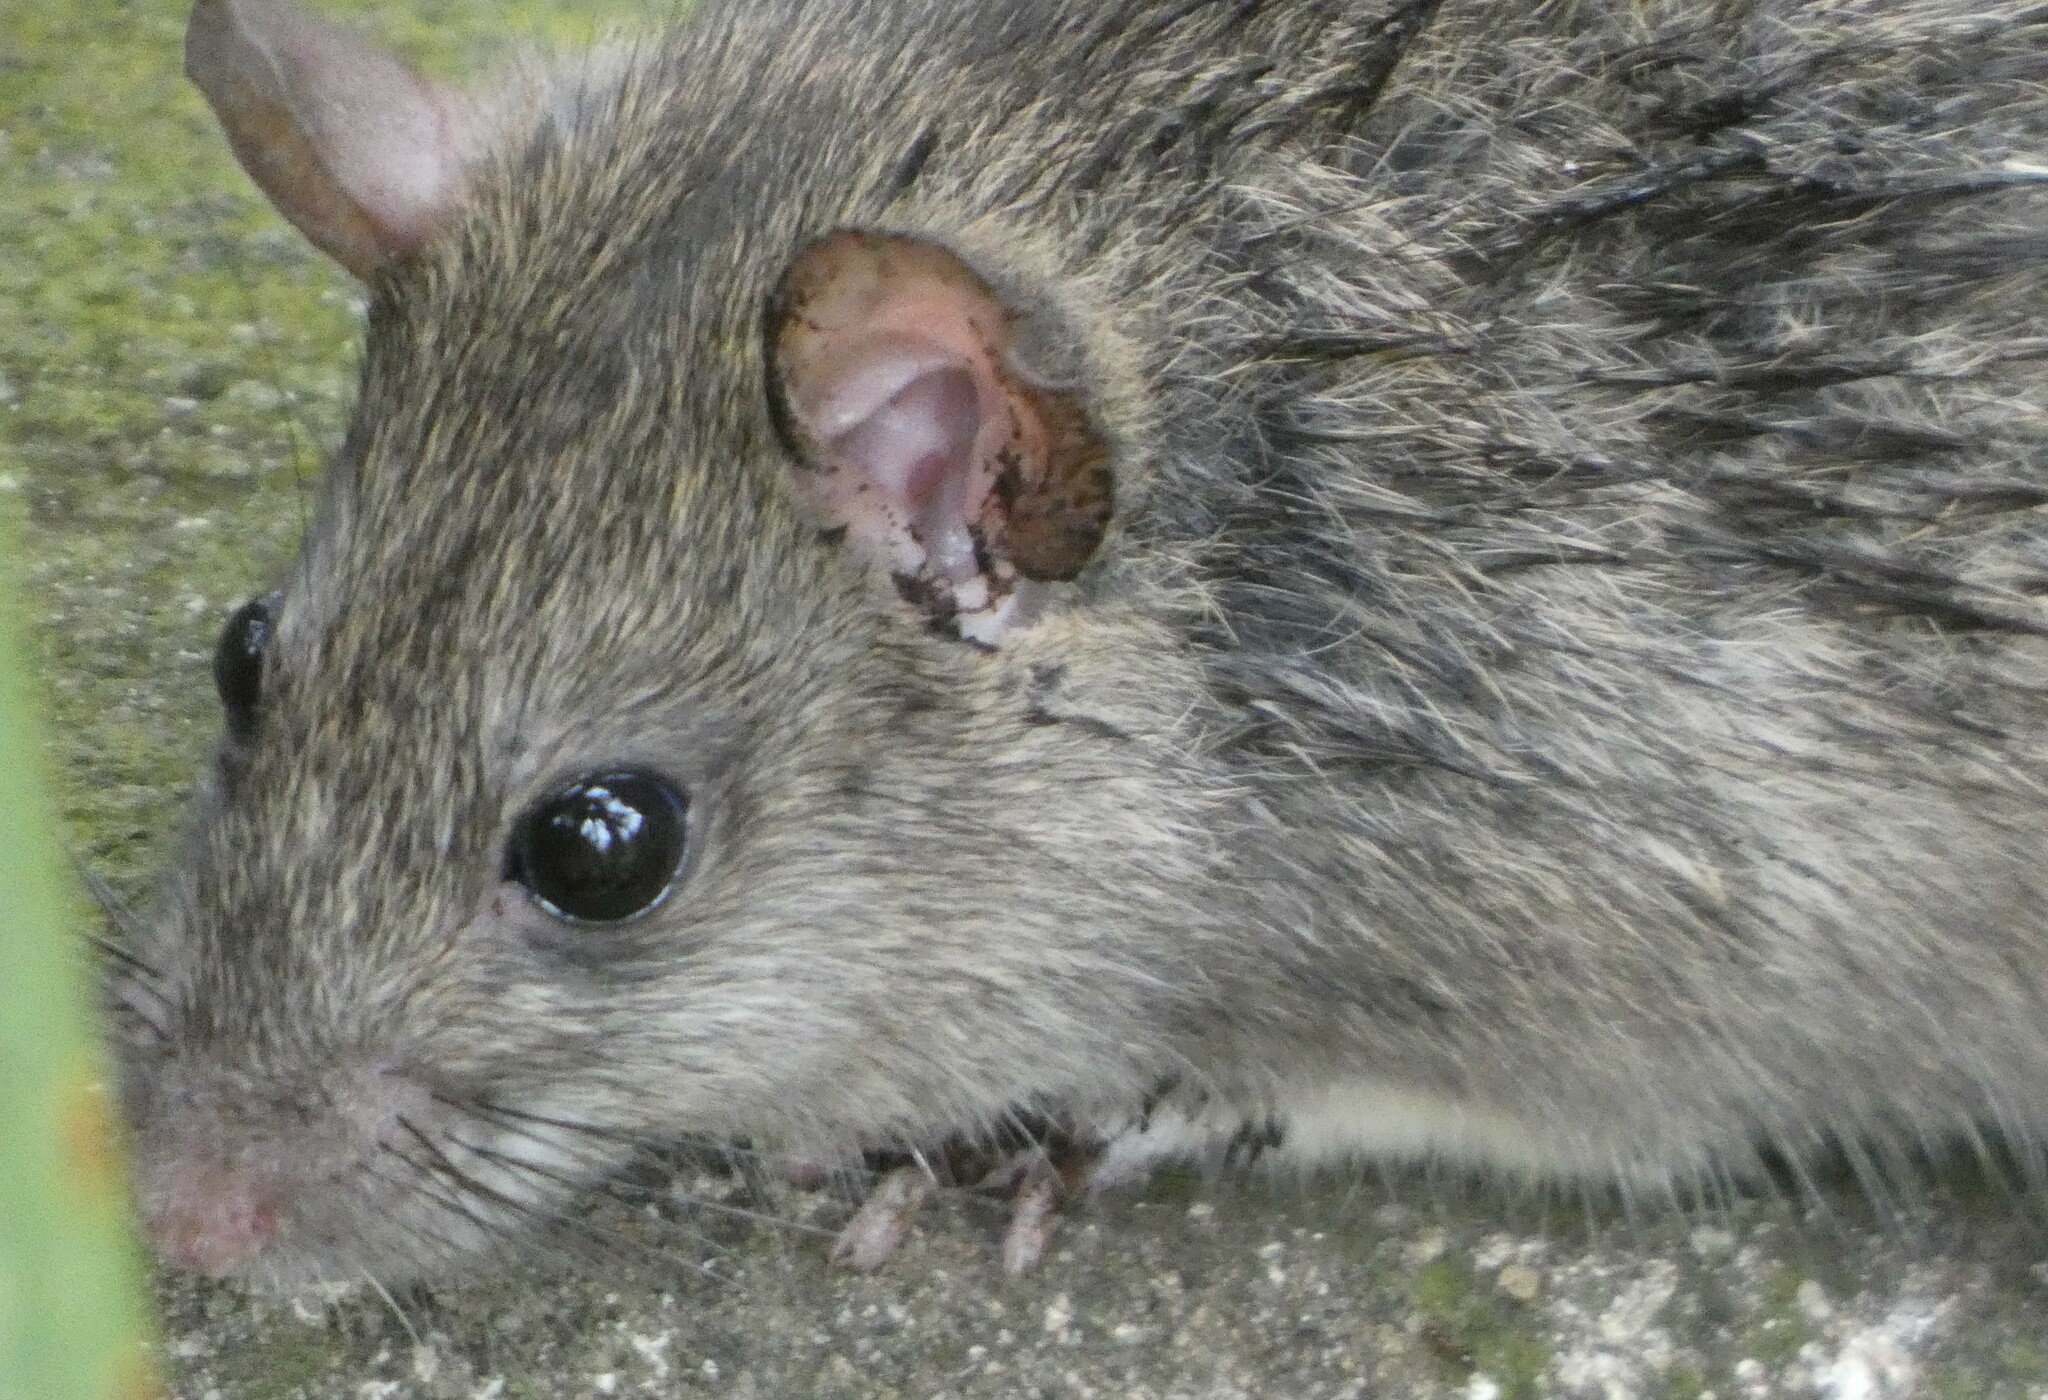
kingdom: Animalia
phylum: Chordata
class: Mammalia
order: Rodentia
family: Muridae
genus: Rattus
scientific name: Rattus rattus
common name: Black rat
